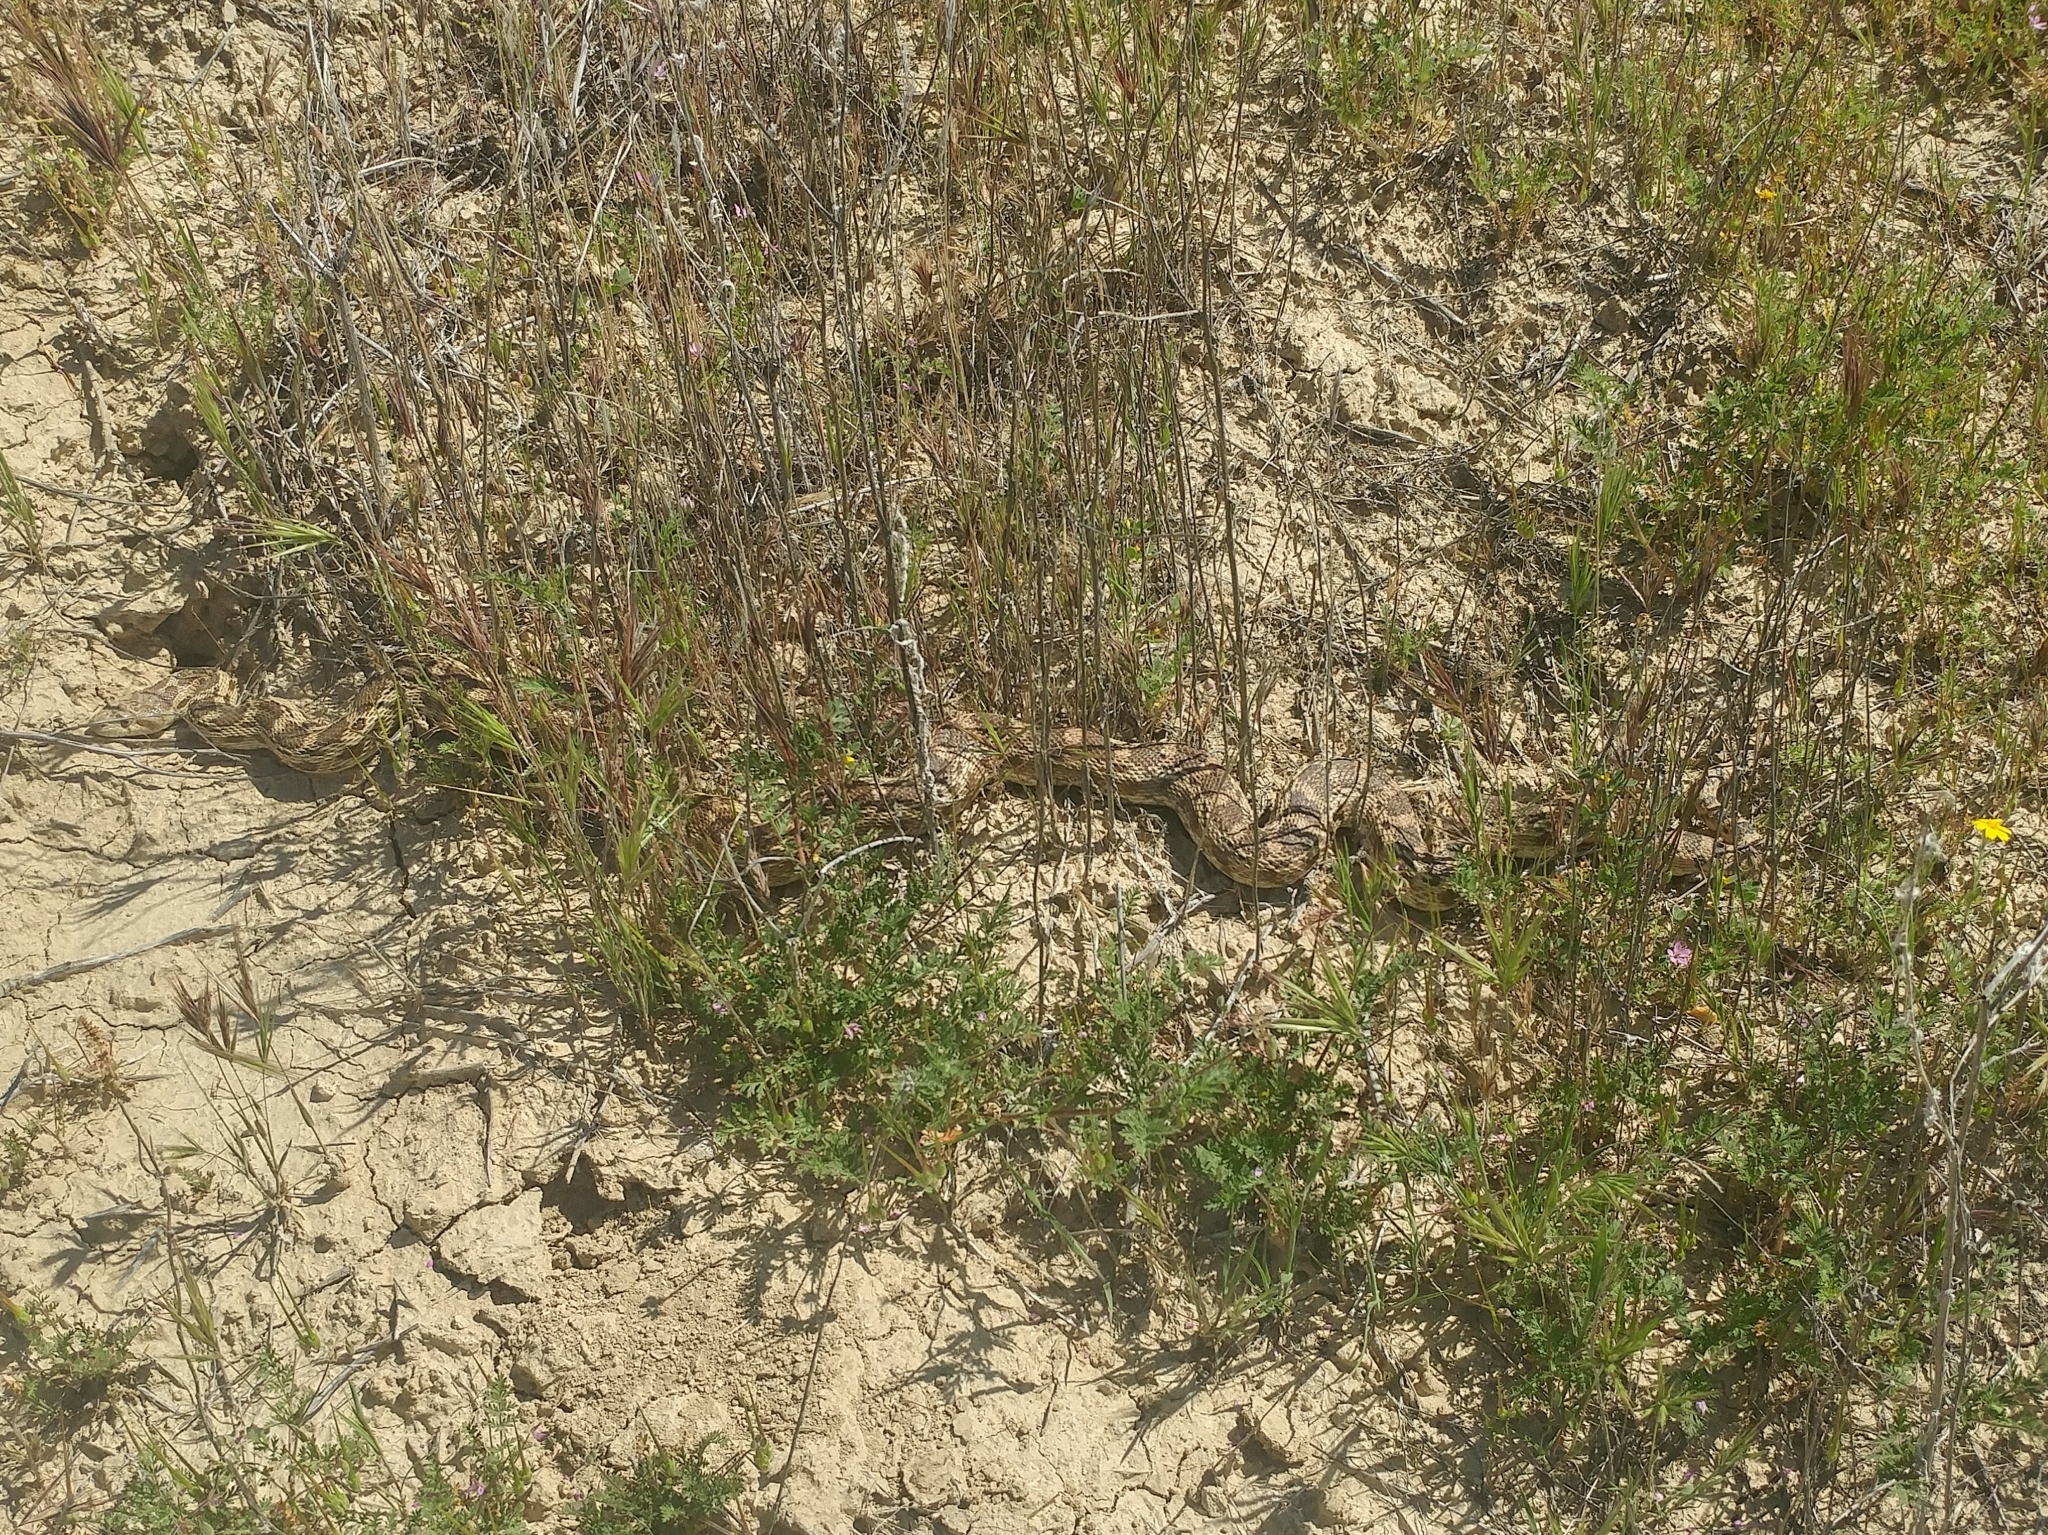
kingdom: Animalia
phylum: Chordata
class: Squamata
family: Colubridae
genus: Pituophis
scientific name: Pituophis catenifer
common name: Gopher snake
